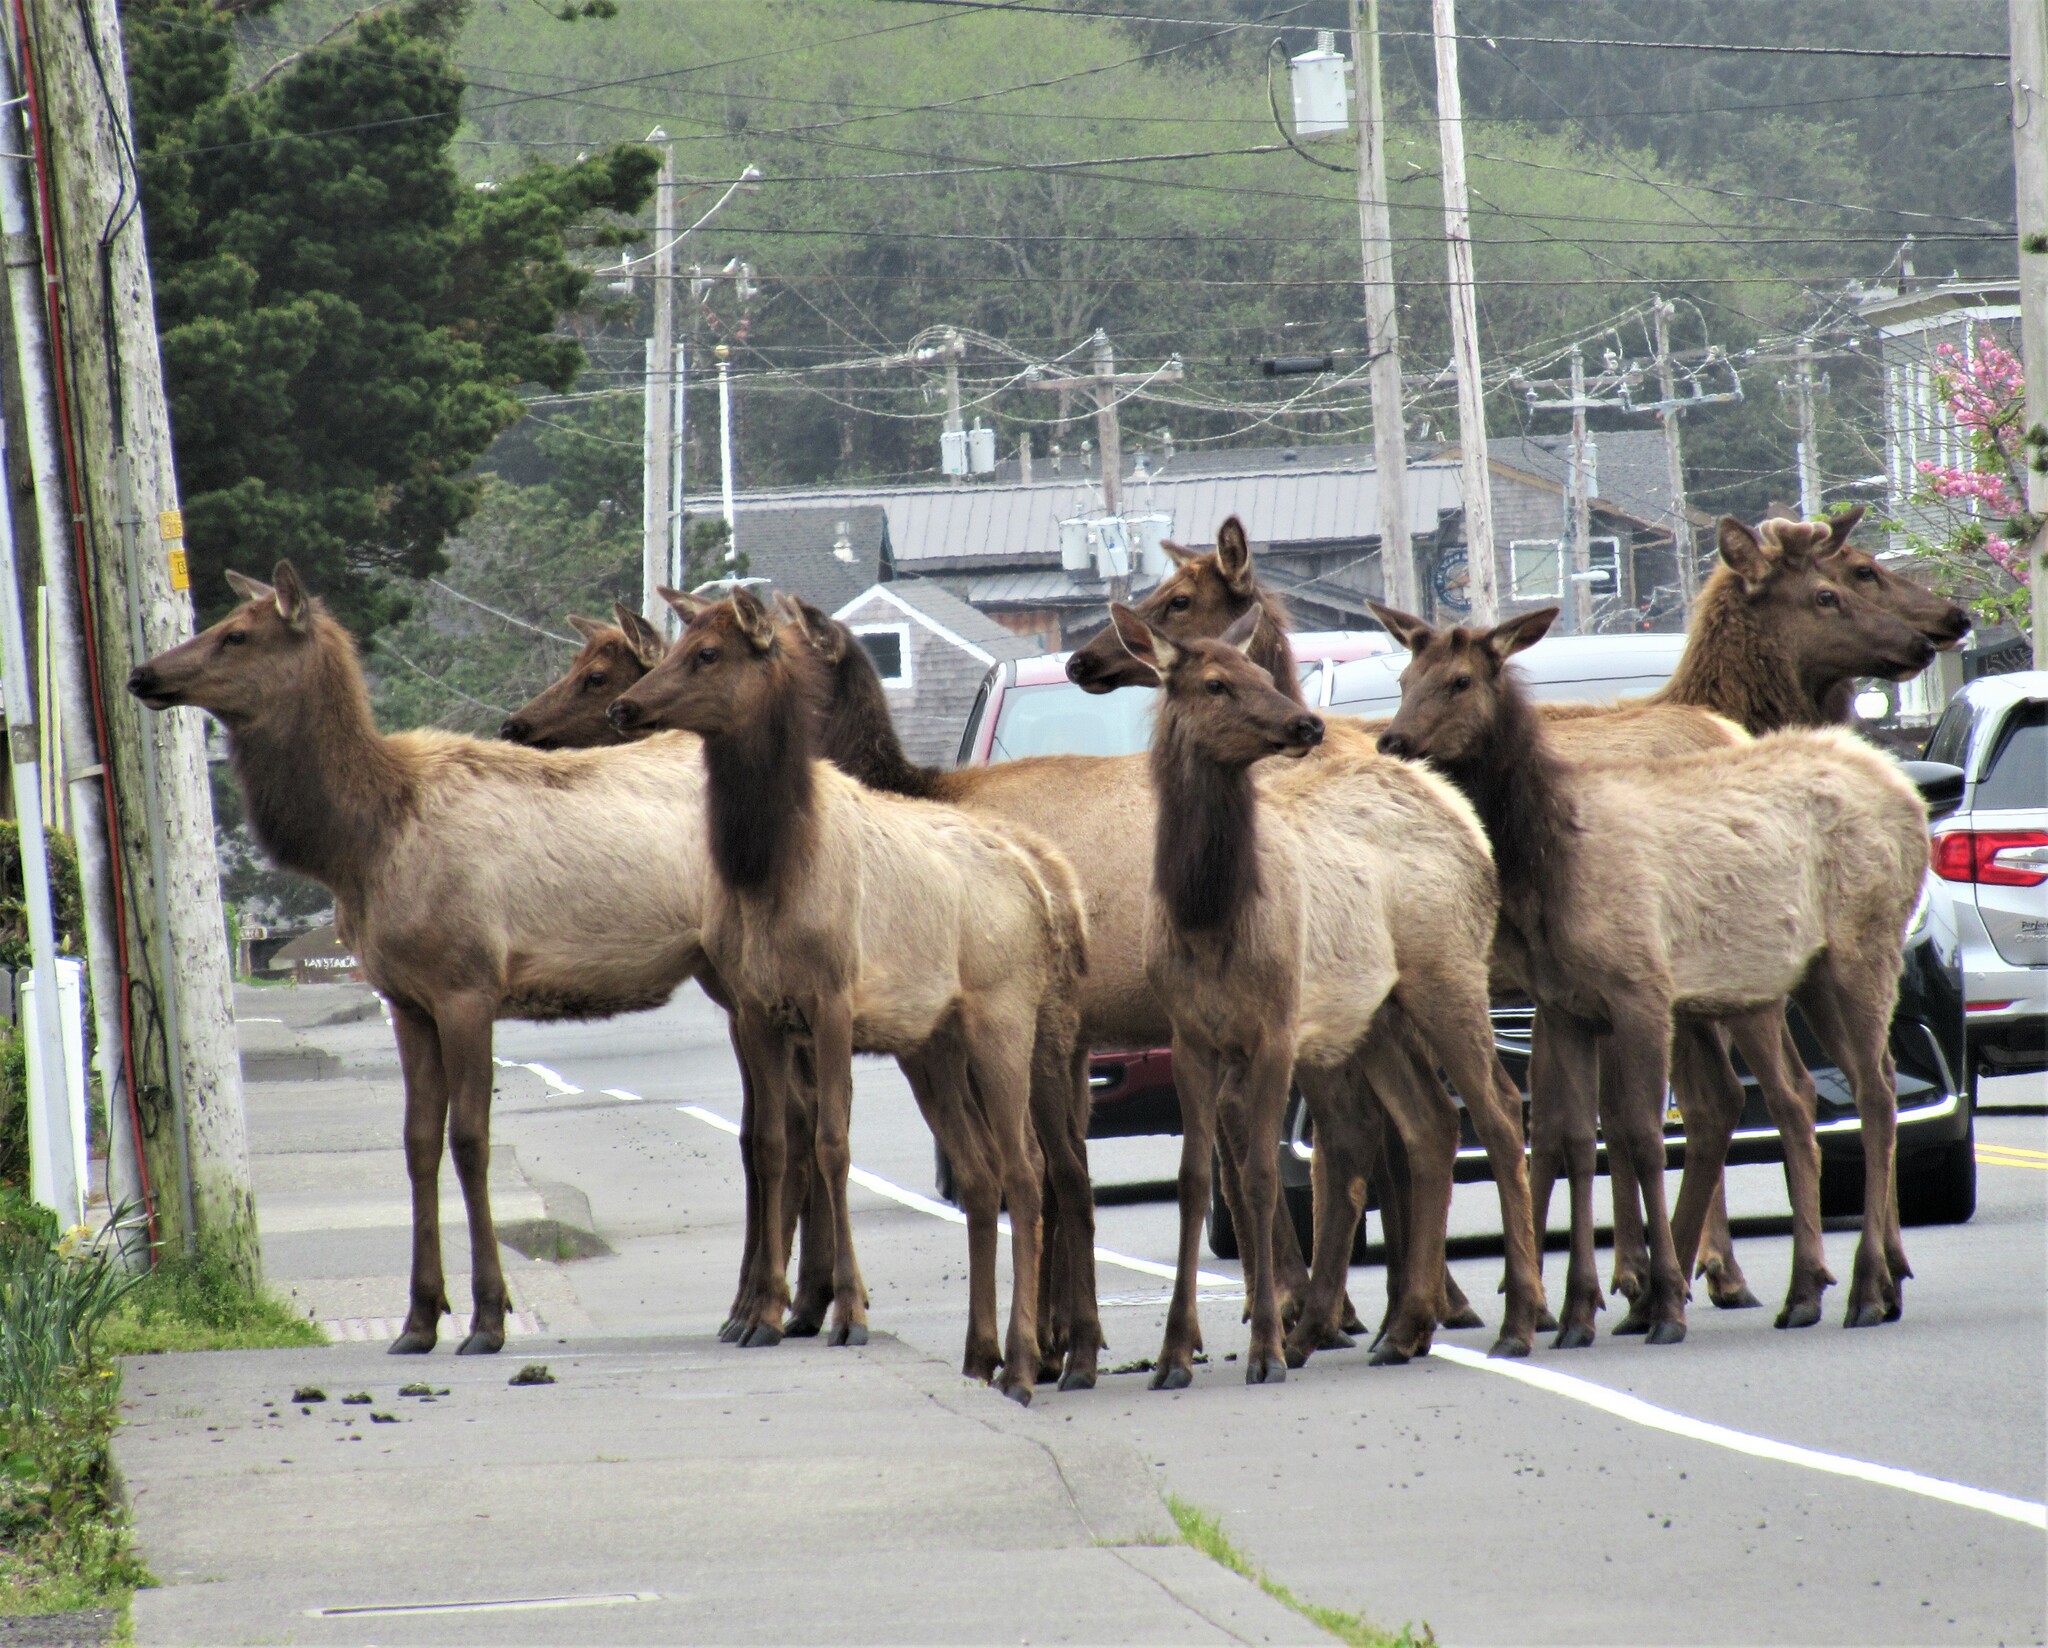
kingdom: Animalia
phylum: Chordata
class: Mammalia
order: Artiodactyla
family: Cervidae
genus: Cervus
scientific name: Cervus elaphus
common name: Red deer
